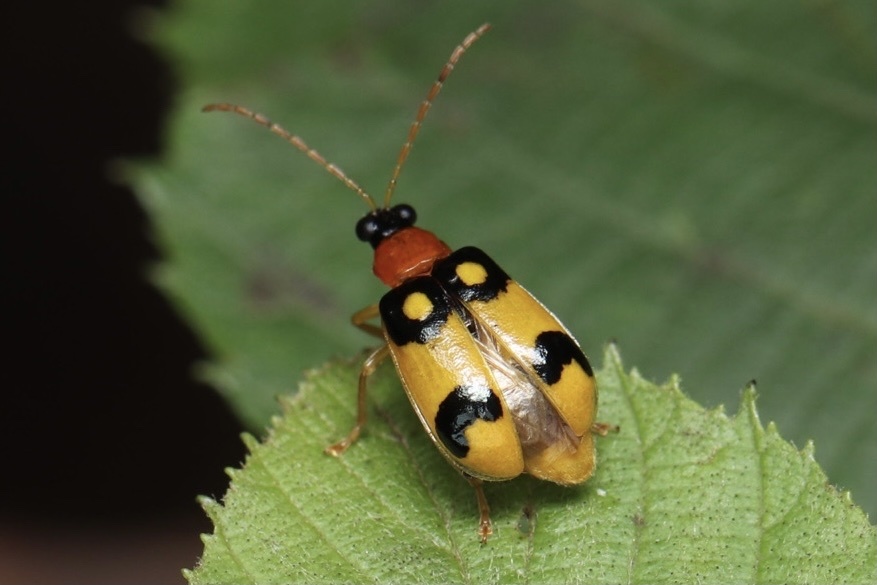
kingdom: Animalia
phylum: Arthropoda
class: Insecta
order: Coleoptera
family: Chrysomelidae
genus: Diabrotica
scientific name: Diabrotica circulata
